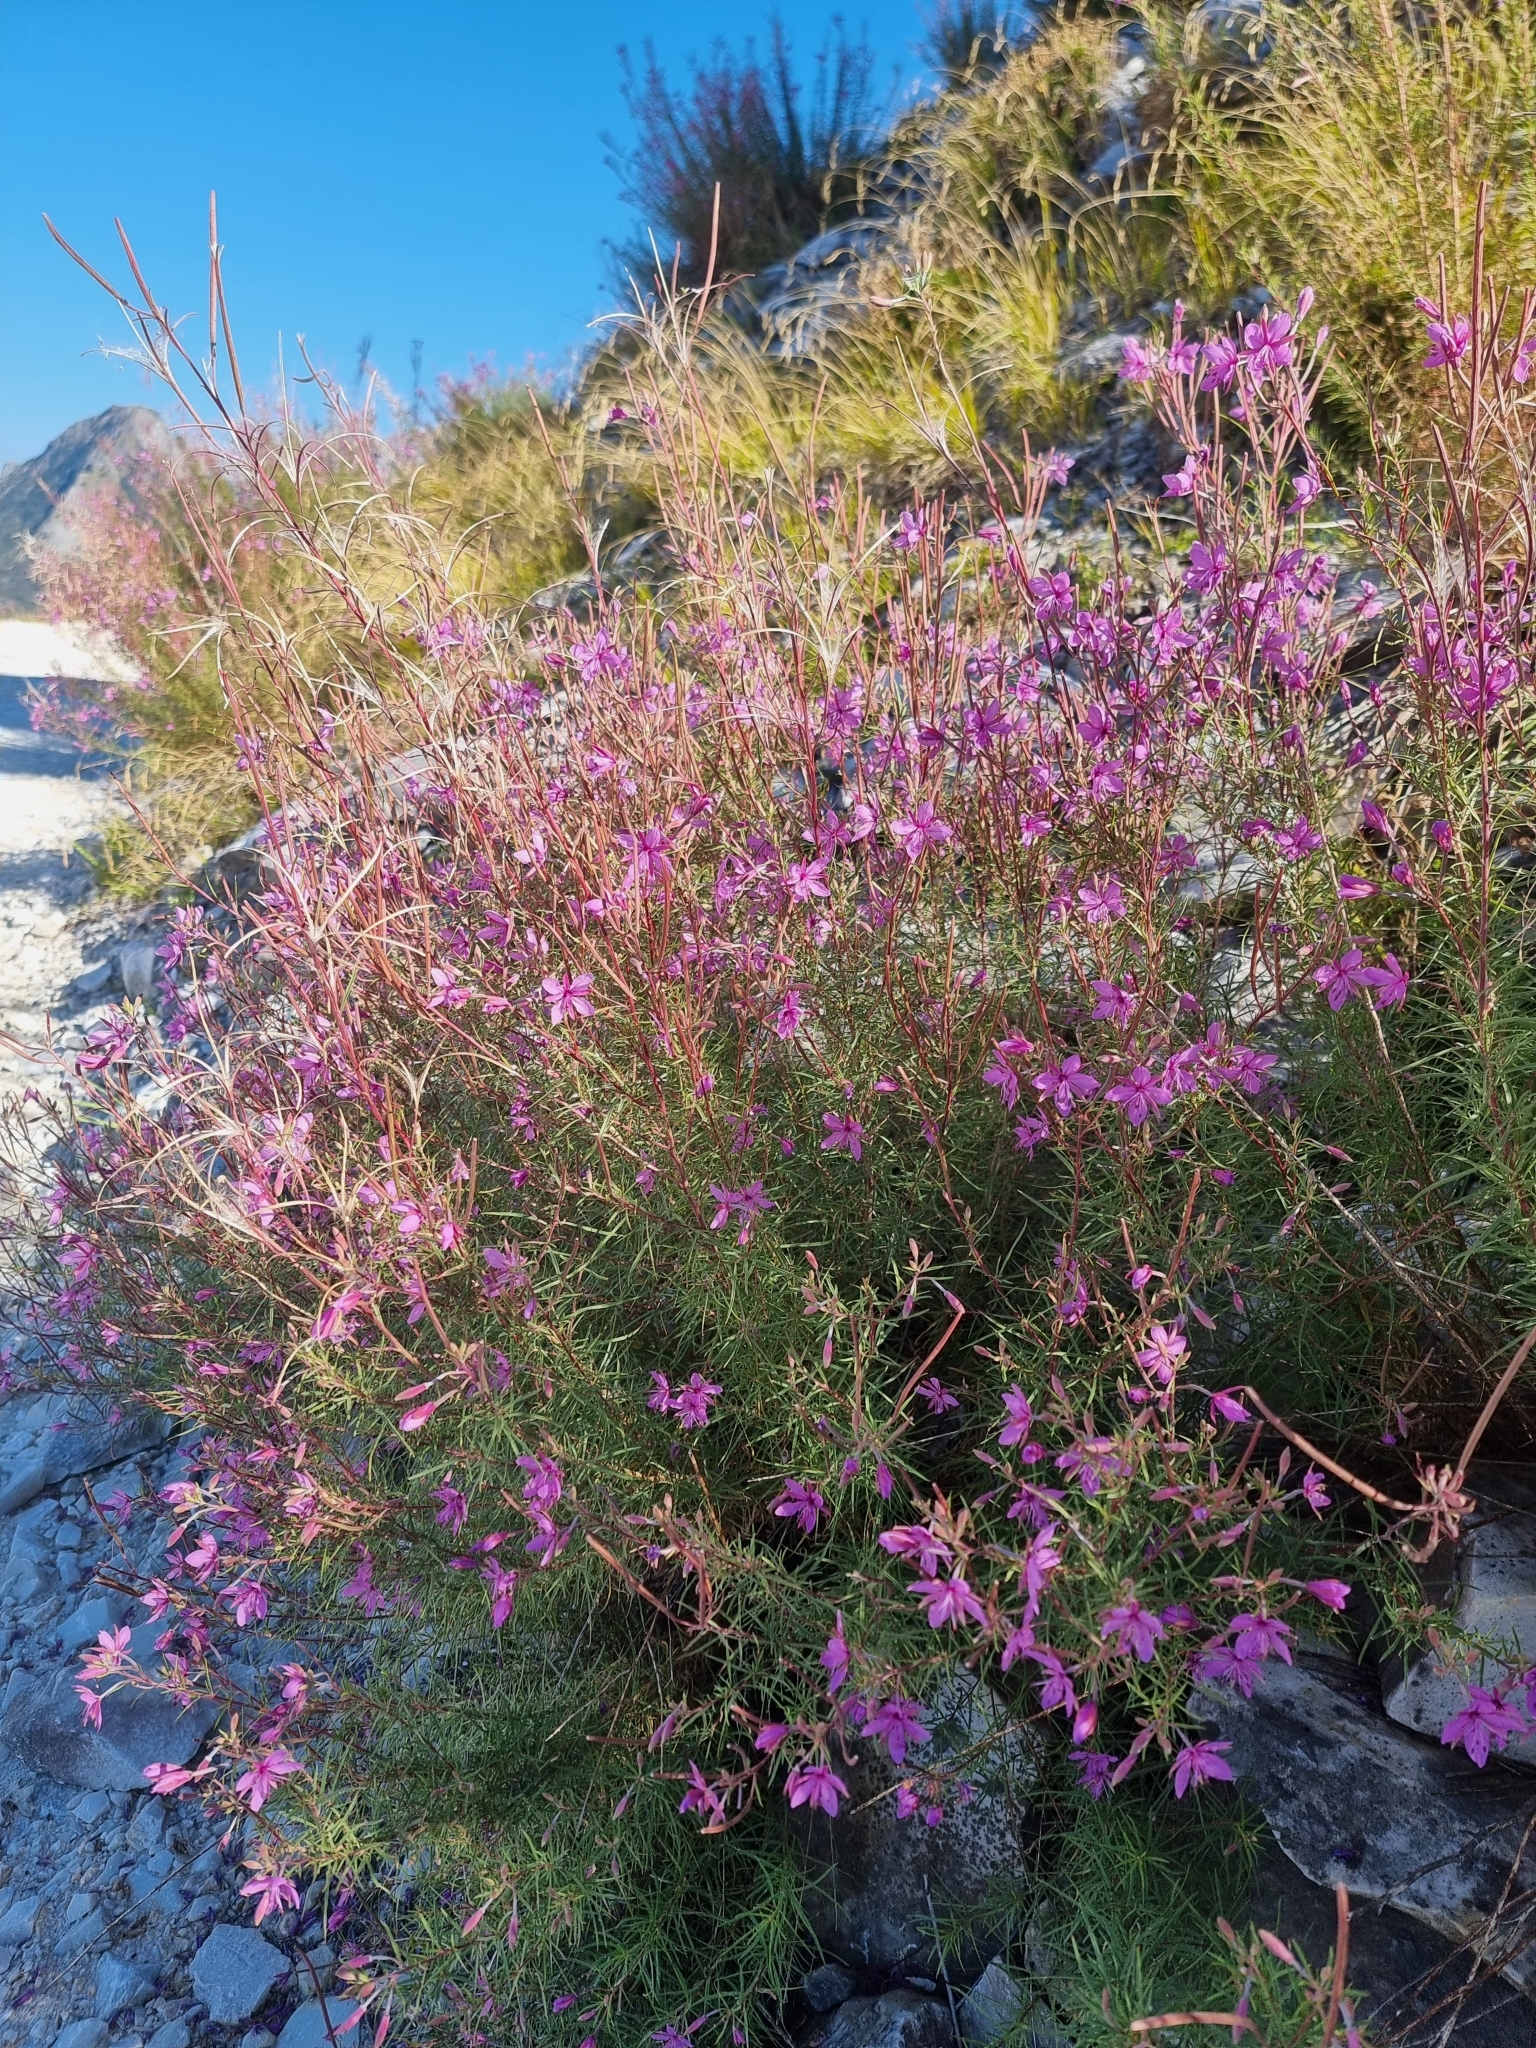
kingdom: Plantae
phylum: Tracheophyta
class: Magnoliopsida
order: Myrtales
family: Onagraceae
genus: Chamaenerion
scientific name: Chamaenerion dodonaei
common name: Rosemary-leaved willowherb
